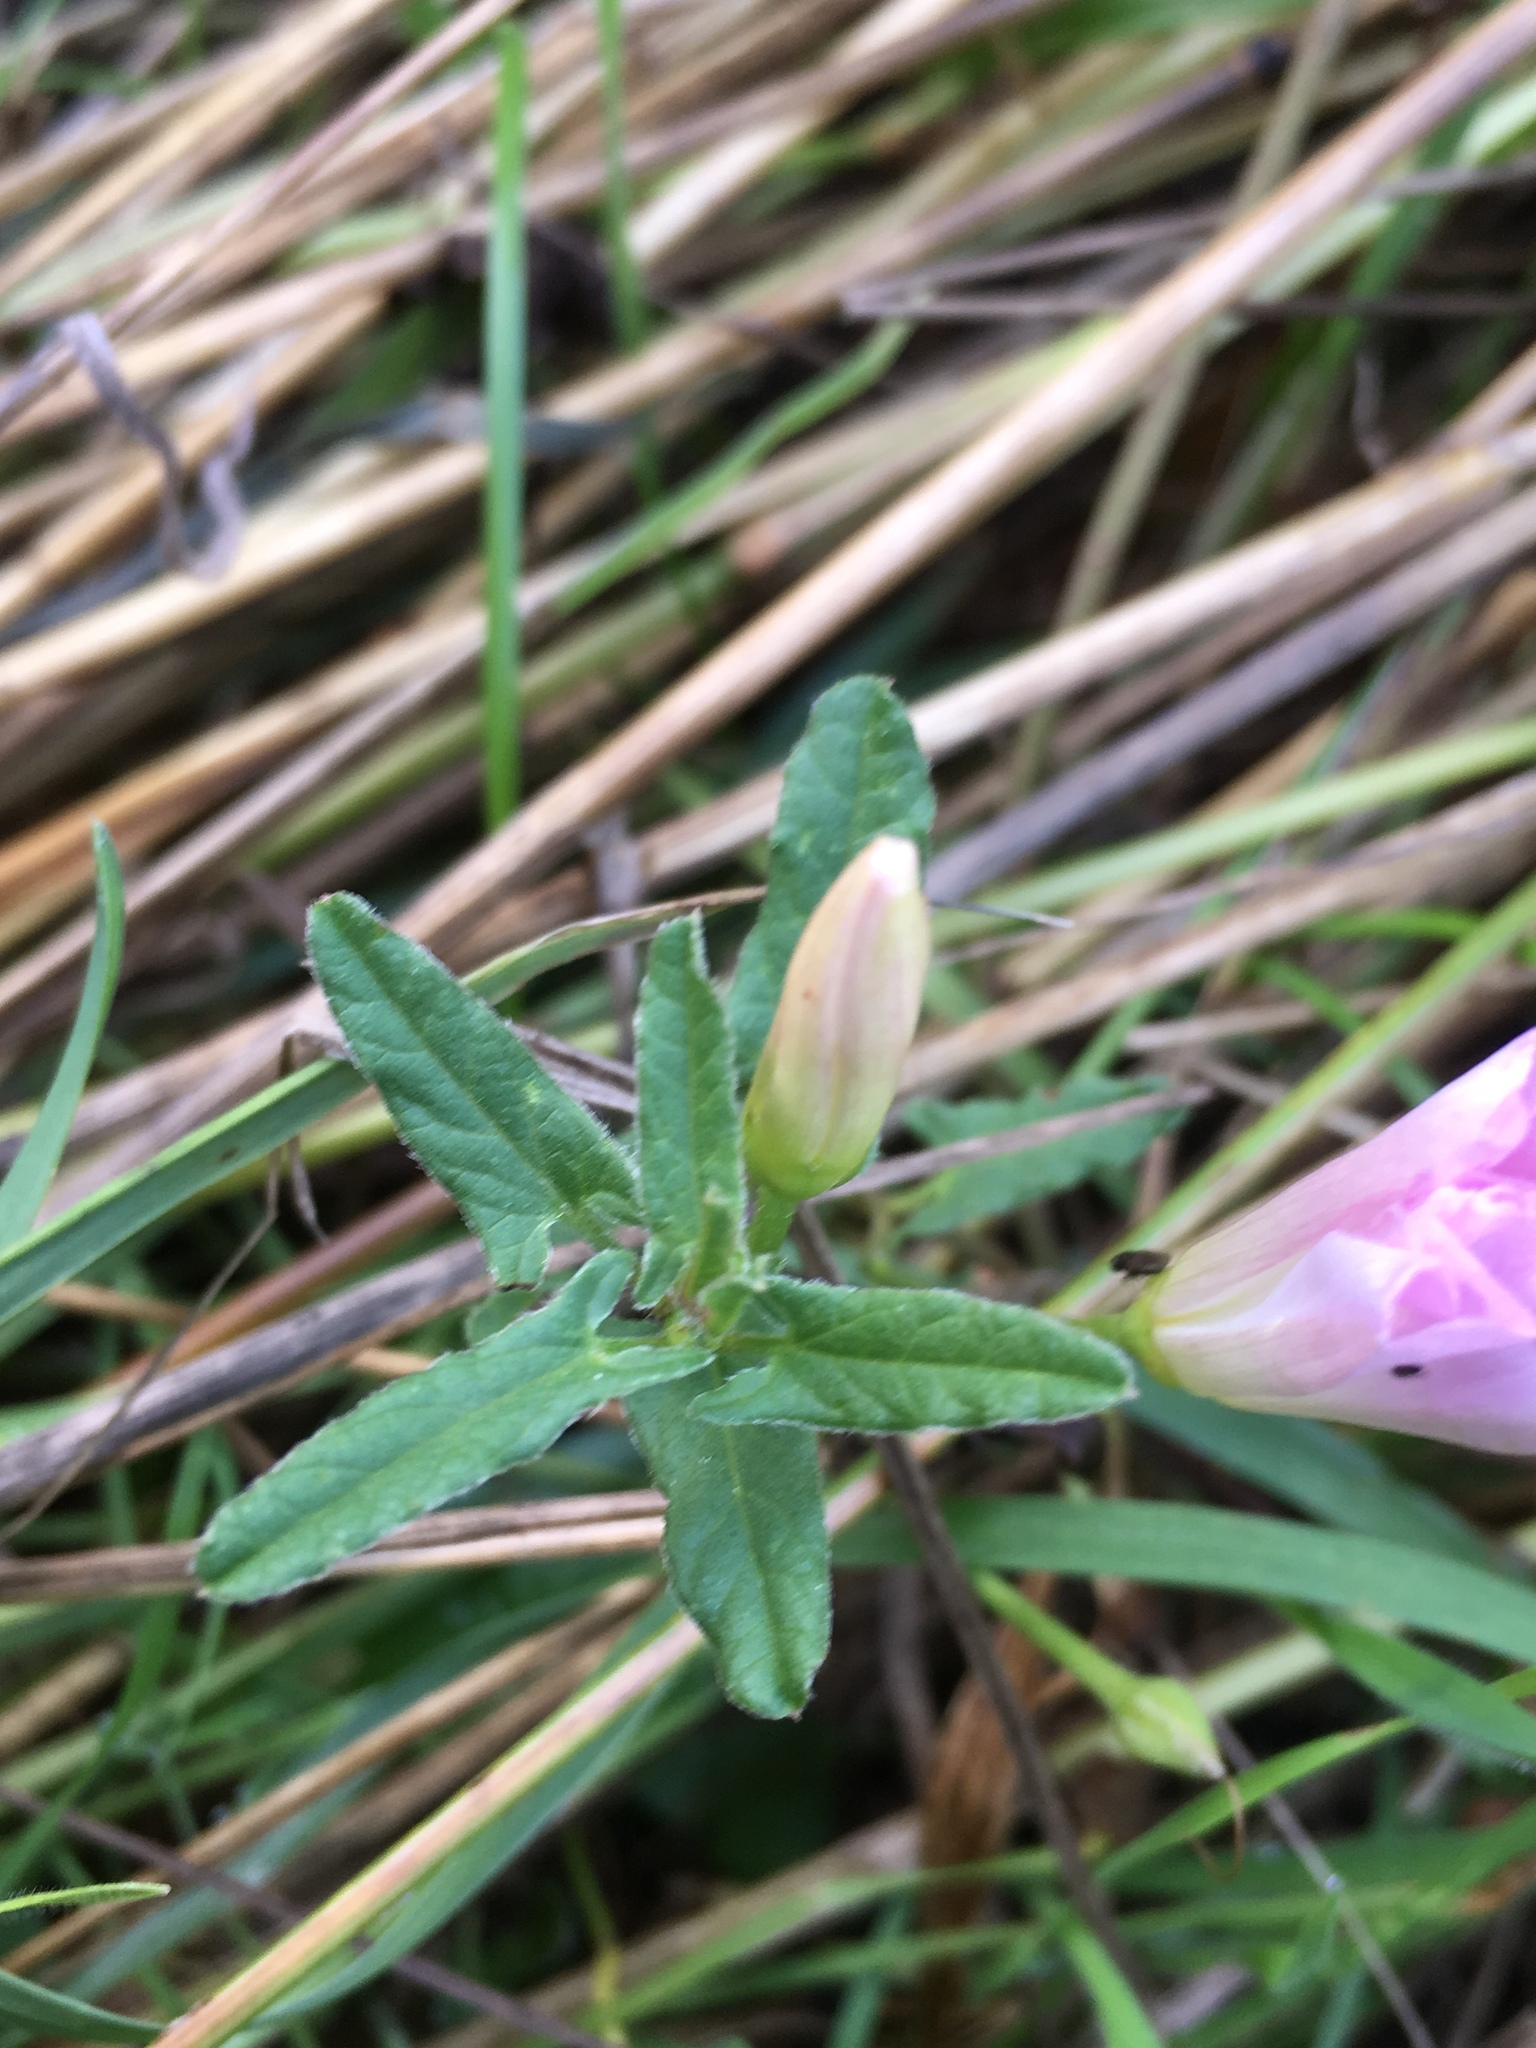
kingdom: Plantae
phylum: Tracheophyta
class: Magnoliopsida
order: Solanales
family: Convolvulaceae
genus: Convolvulus
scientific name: Convolvulus arvensis
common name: Field bindweed
